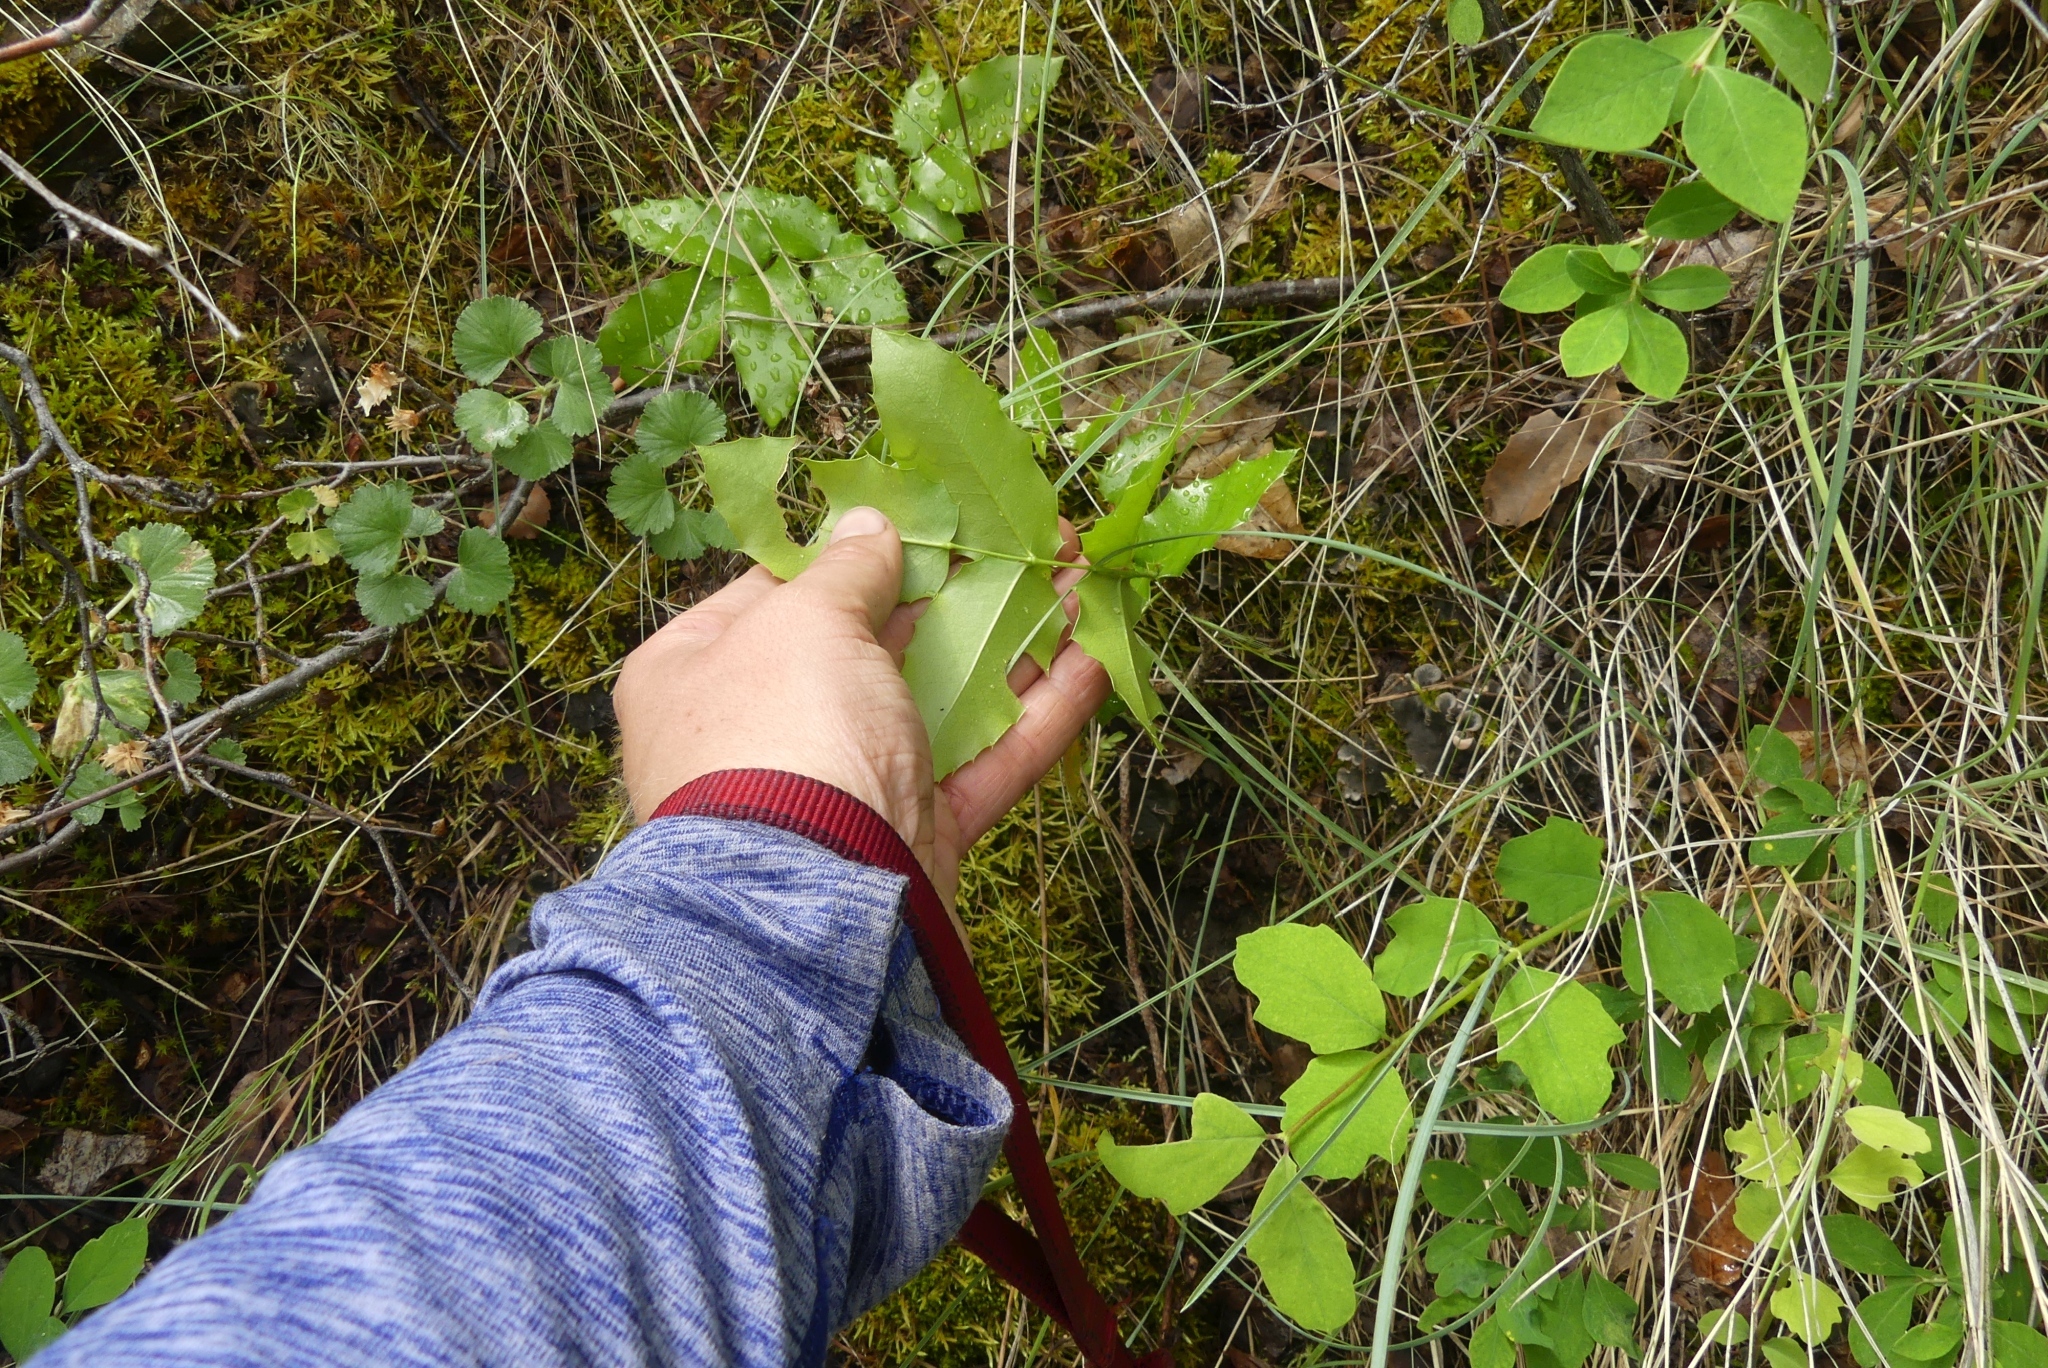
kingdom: Plantae
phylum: Tracheophyta
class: Magnoliopsida
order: Ranunculales
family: Berberidaceae
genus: Mahonia
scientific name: Mahonia aquifolium
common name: Oregon-grape
